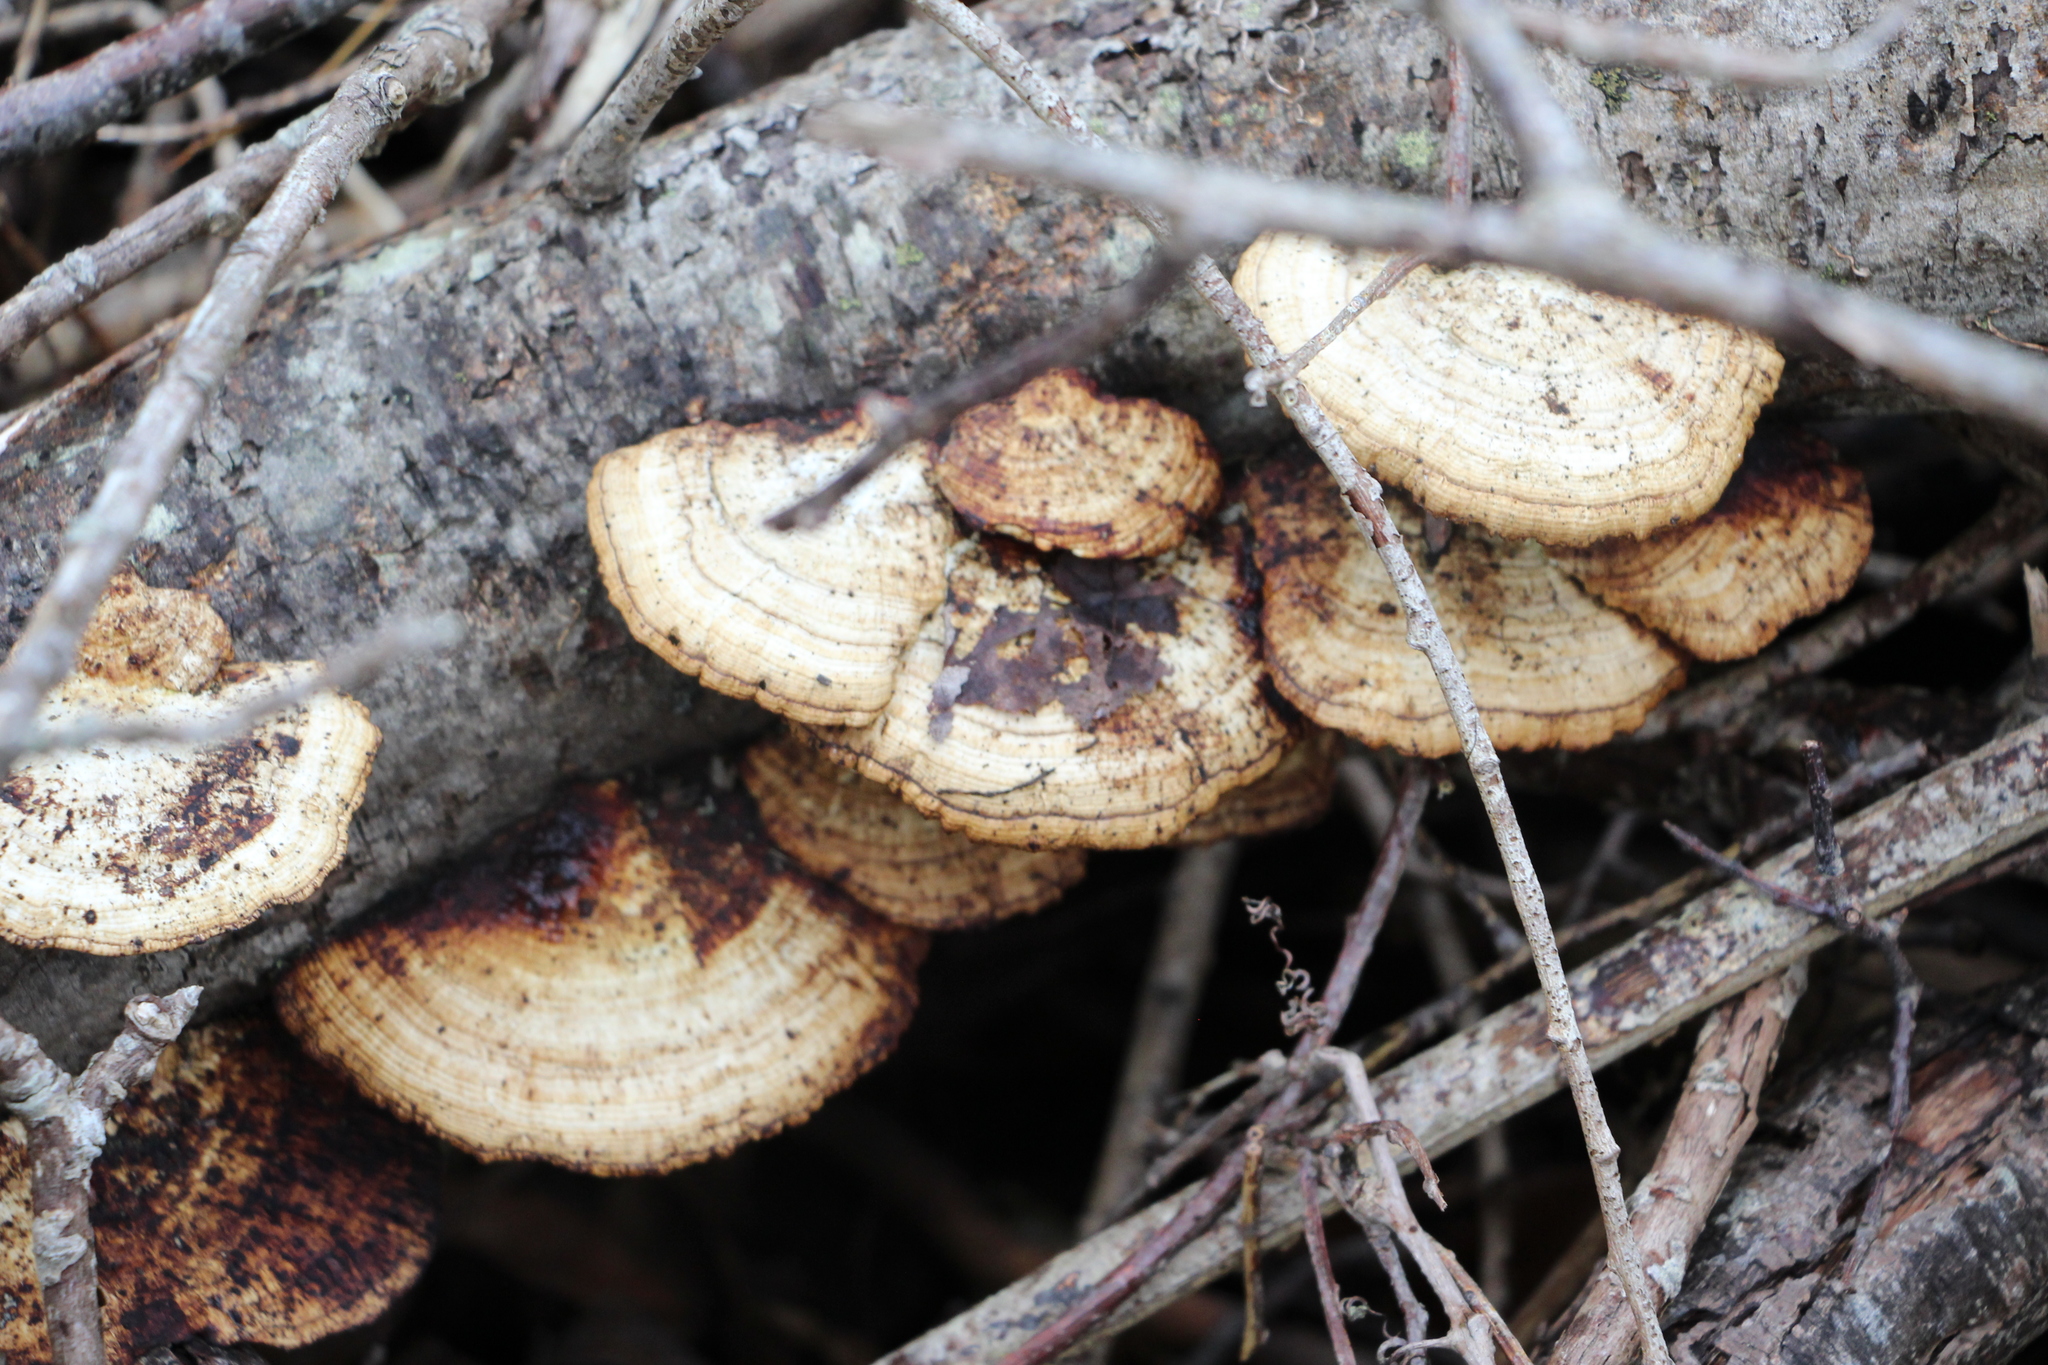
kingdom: Fungi
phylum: Basidiomycota
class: Agaricomycetes
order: Polyporales
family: Polyporaceae
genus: Daedaleopsis
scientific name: Daedaleopsis confragosa
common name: Blushing bracket
